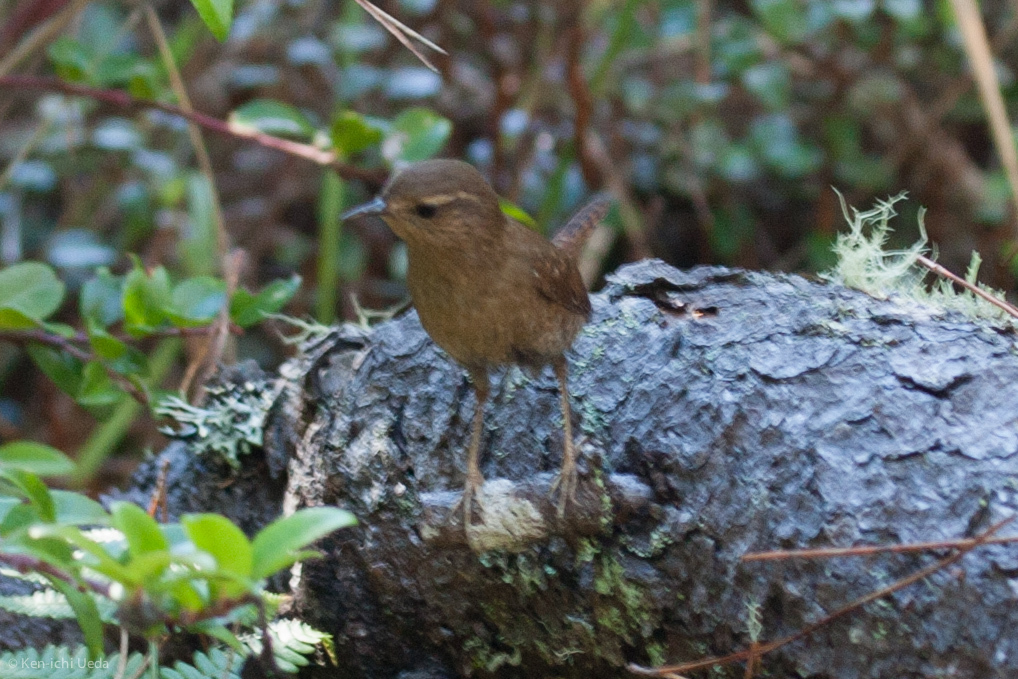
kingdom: Animalia
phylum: Chordata
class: Aves
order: Passeriformes
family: Troglodytidae
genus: Troglodytes
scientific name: Troglodytes pacificus
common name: Pacific wren
